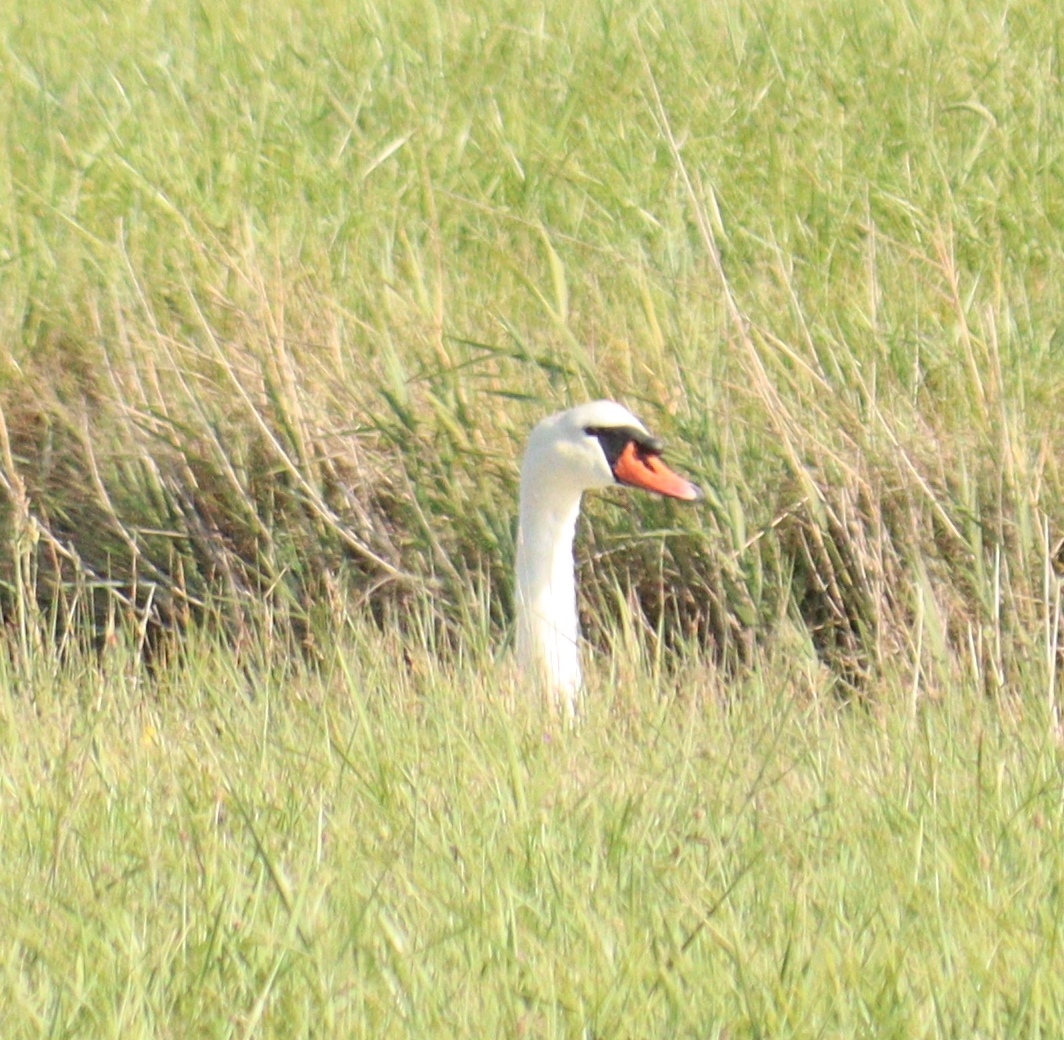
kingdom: Animalia
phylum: Chordata
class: Aves
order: Anseriformes
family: Anatidae
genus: Cygnus
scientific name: Cygnus olor
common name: Mute swan
